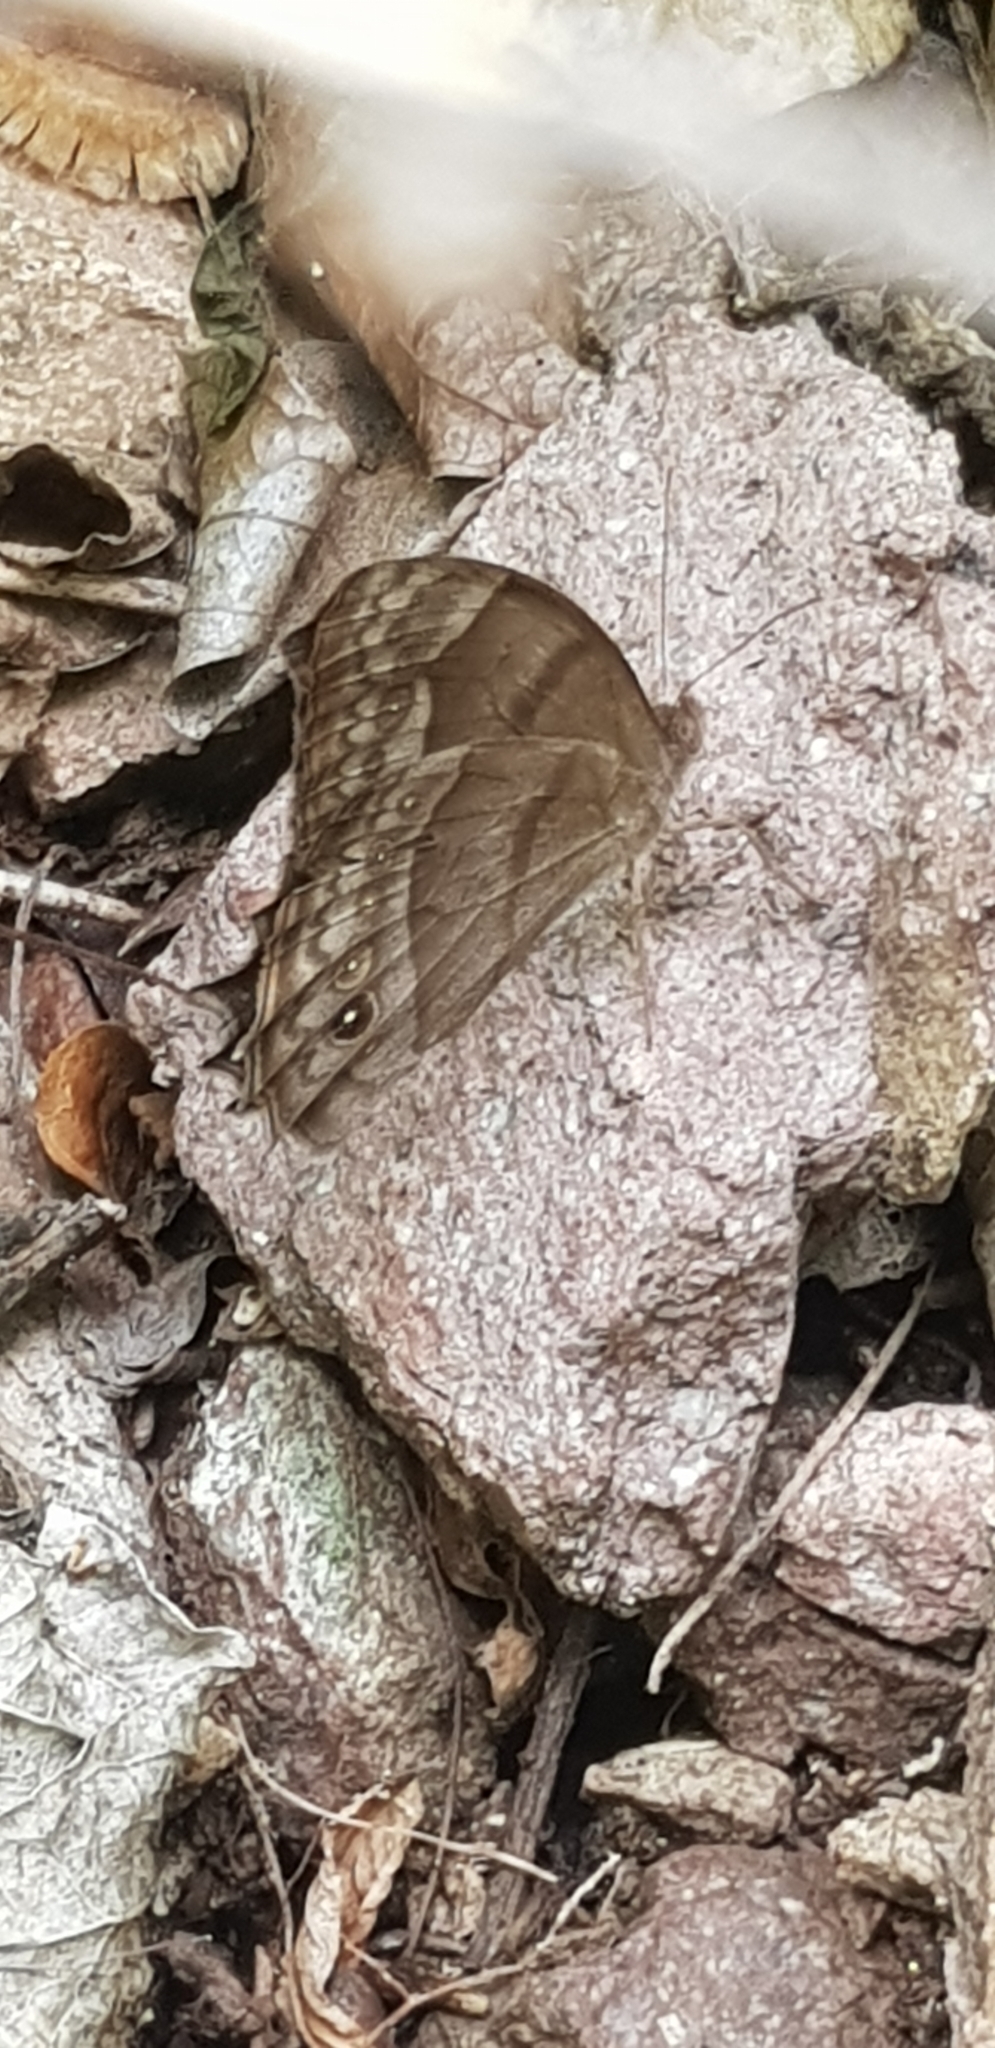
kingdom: Animalia
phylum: Arthropoda
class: Insecta
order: Lepidoptera
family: Nymphalidae
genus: Vareuptychia
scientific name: Vareuptychia similis
